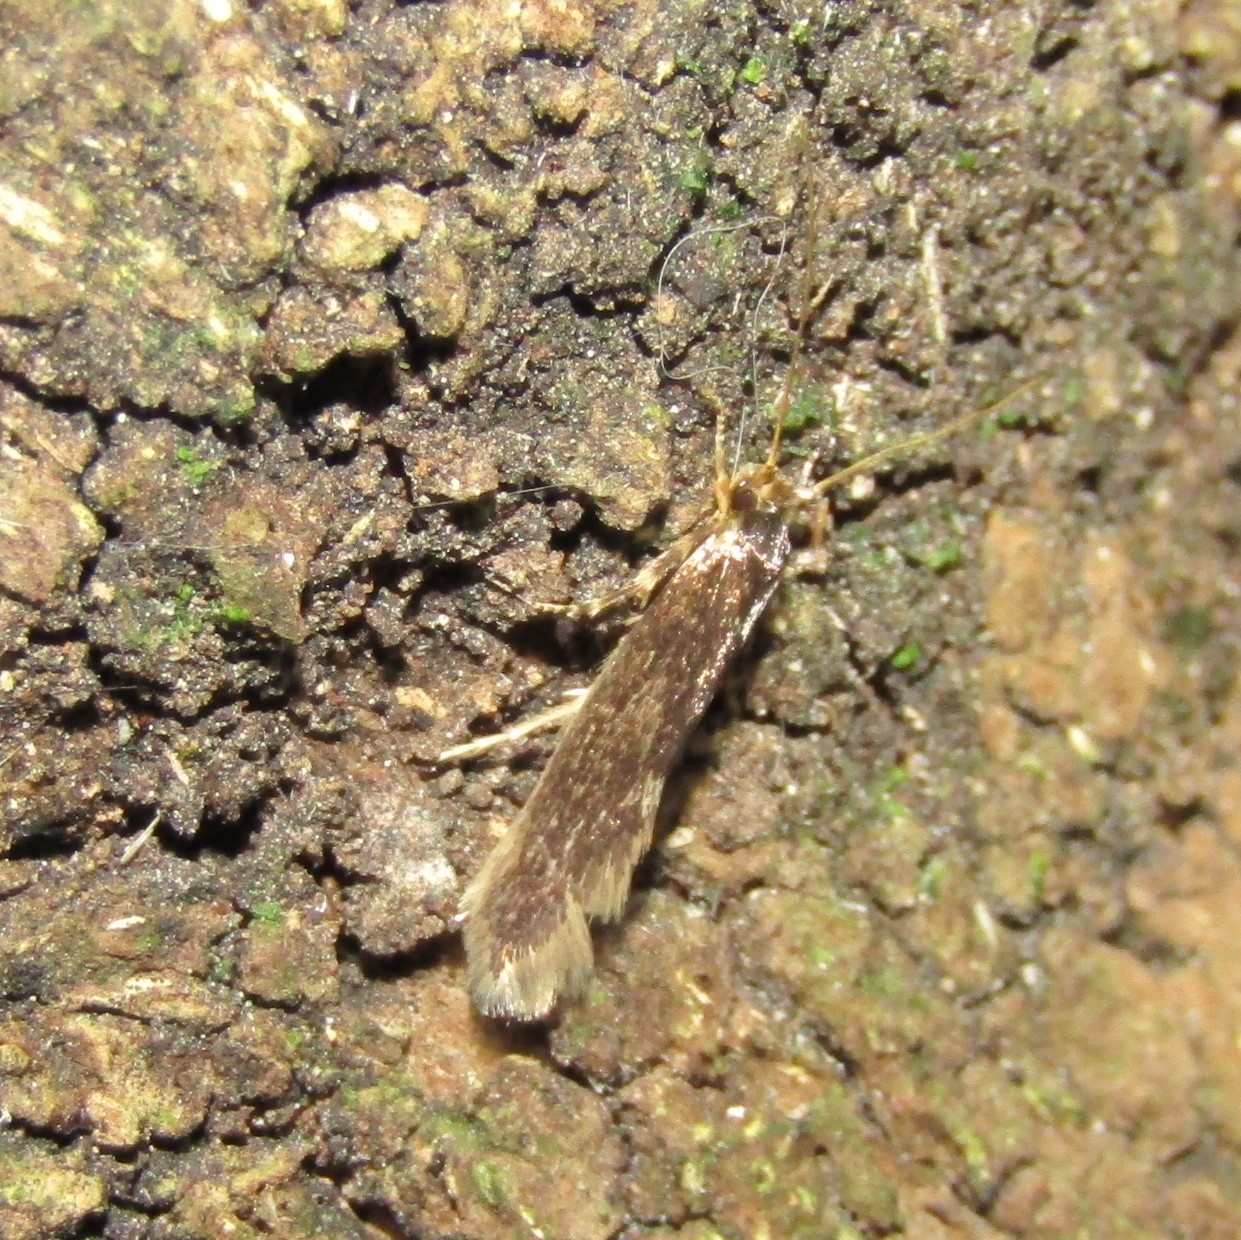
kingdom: Animalia
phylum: Arthropoda
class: Insecta
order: Lepidoptera
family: Tineidae
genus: Opogona
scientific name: Opogona omoscopa
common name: Moth
